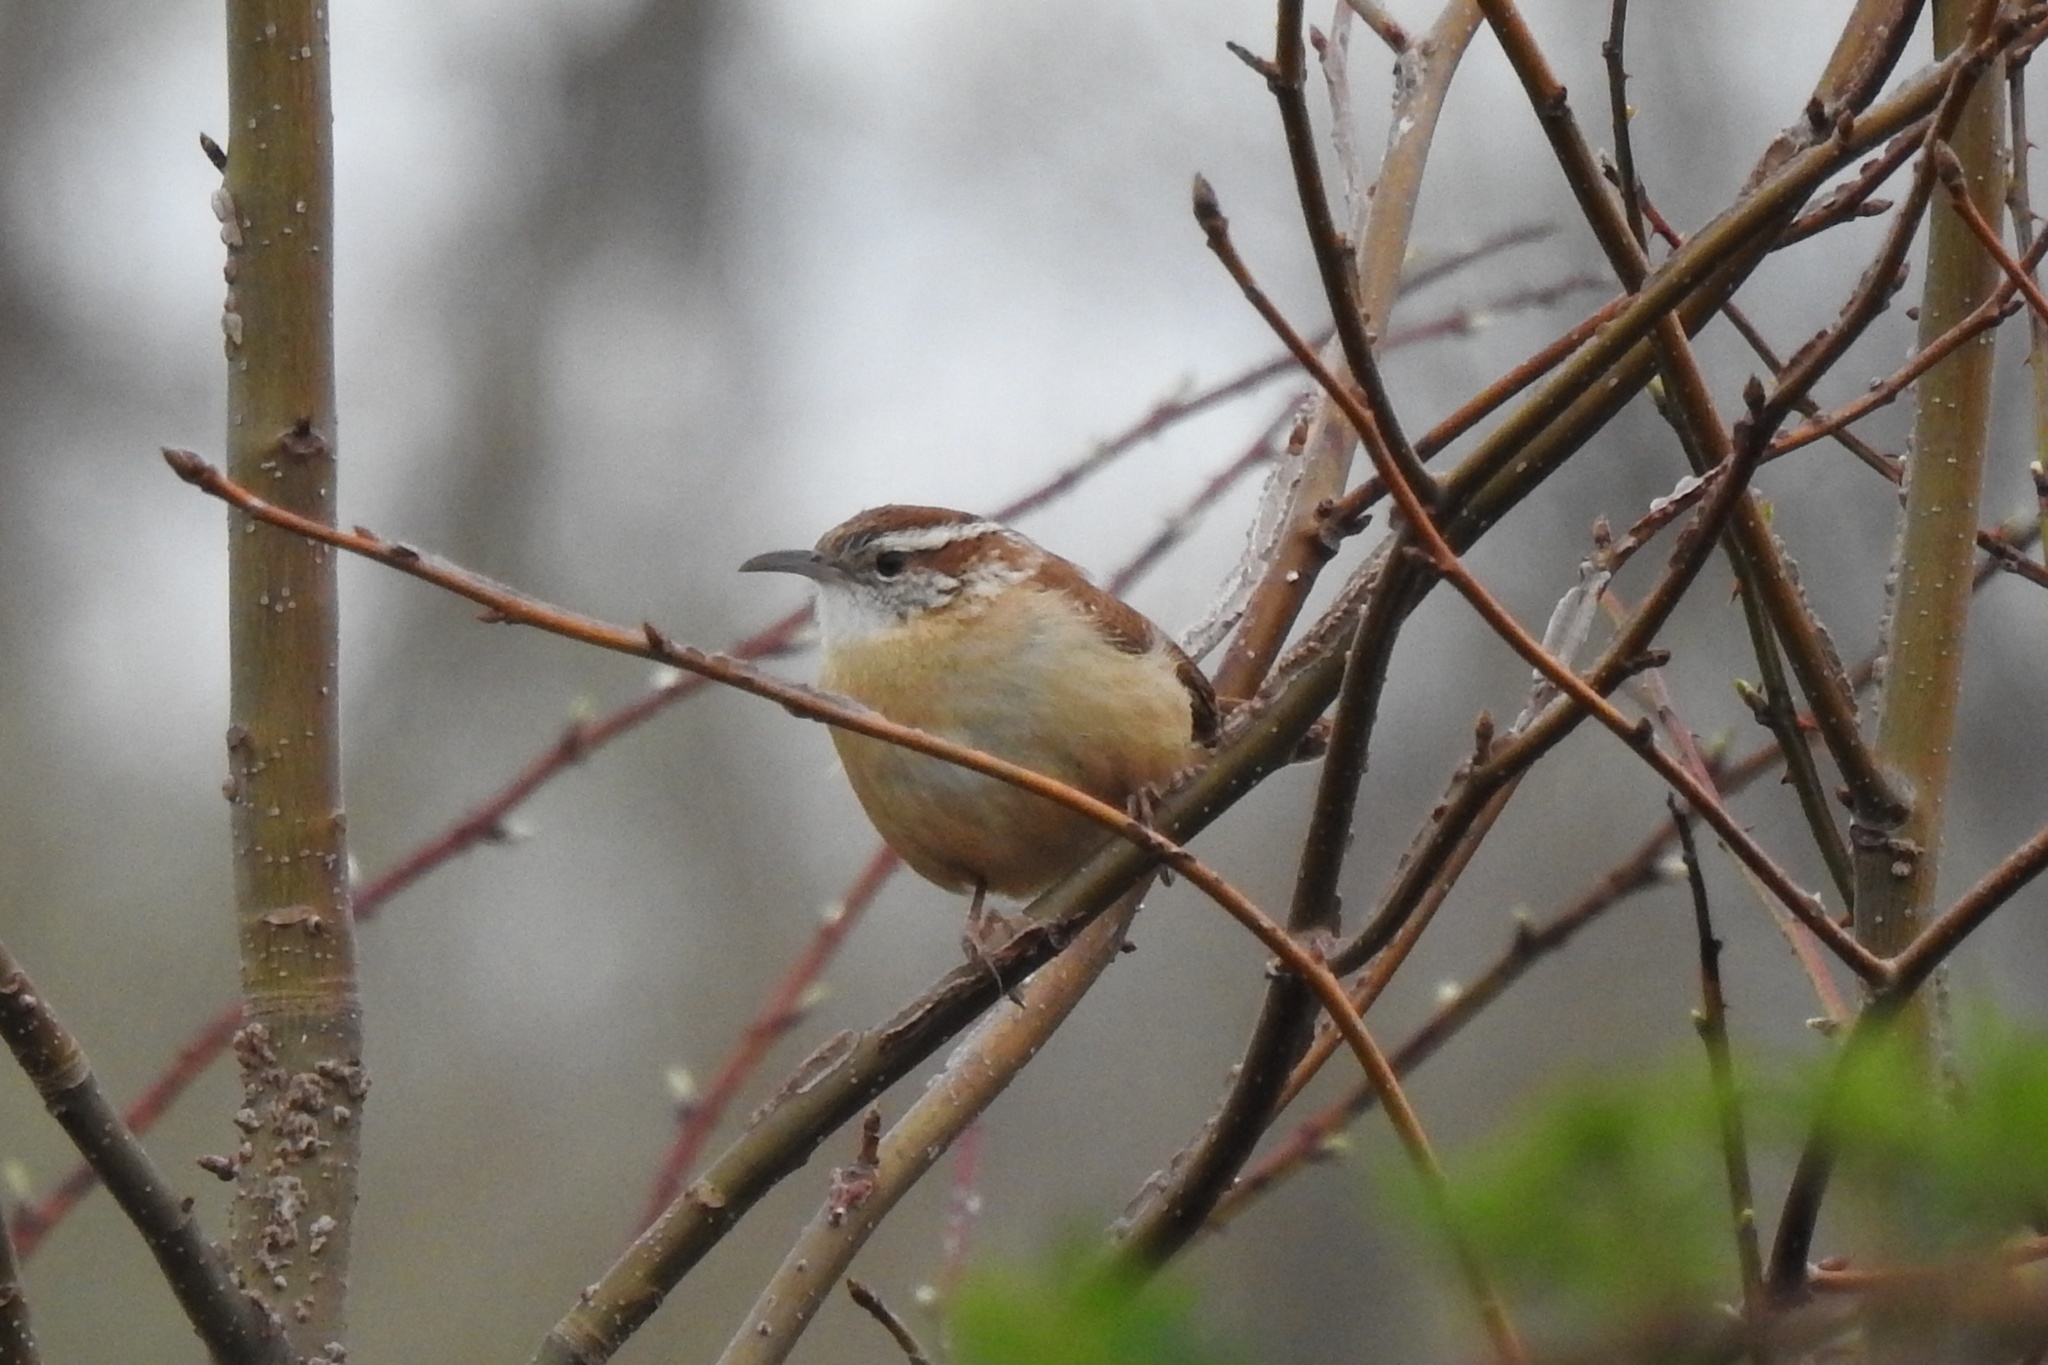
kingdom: Animalia
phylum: Chordata
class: Aves
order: Passeriformes
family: Troglodytidae
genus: Thryothorus
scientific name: Thryothorus ludovicianus
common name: Carolina wren
